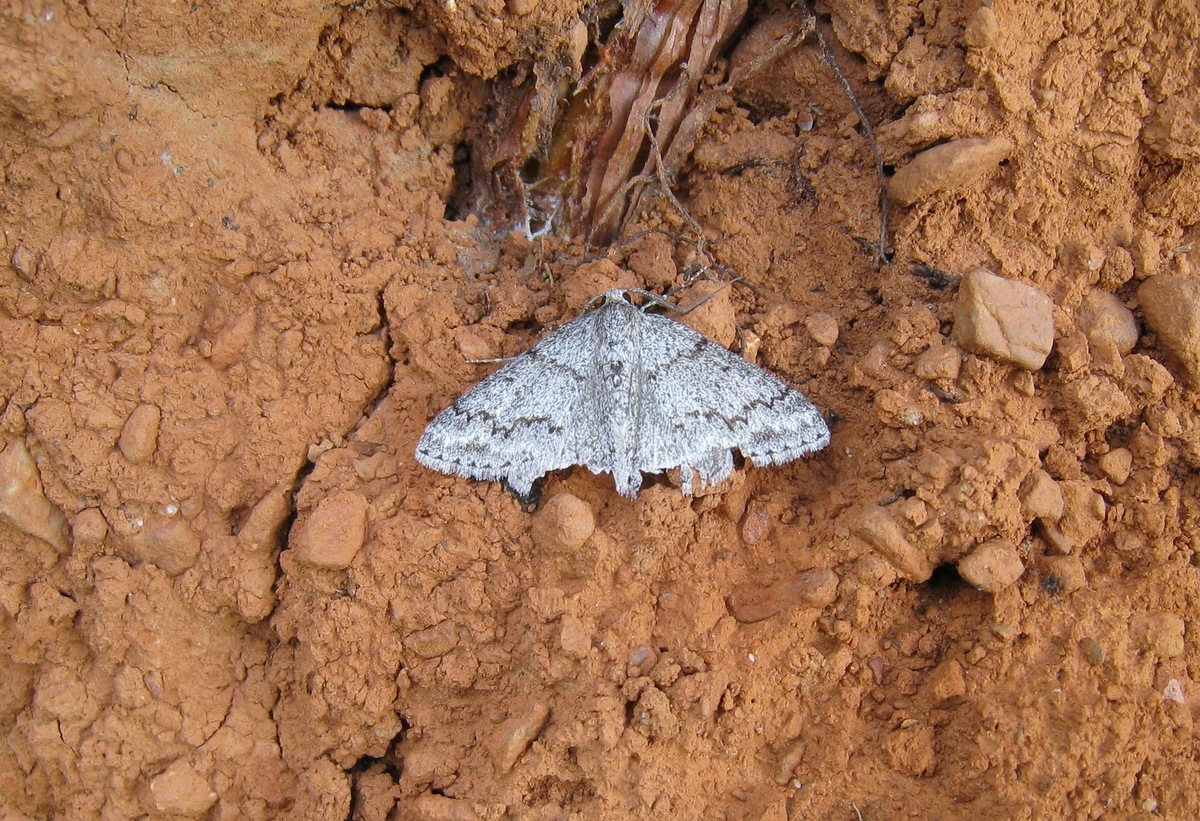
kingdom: Animalia
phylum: Arthropoda
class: Insecta
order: Lepidoptera
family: Geometridae
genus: Pseudoterpna
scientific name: Pseudoterpna coronillaria
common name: Jersey emerald
